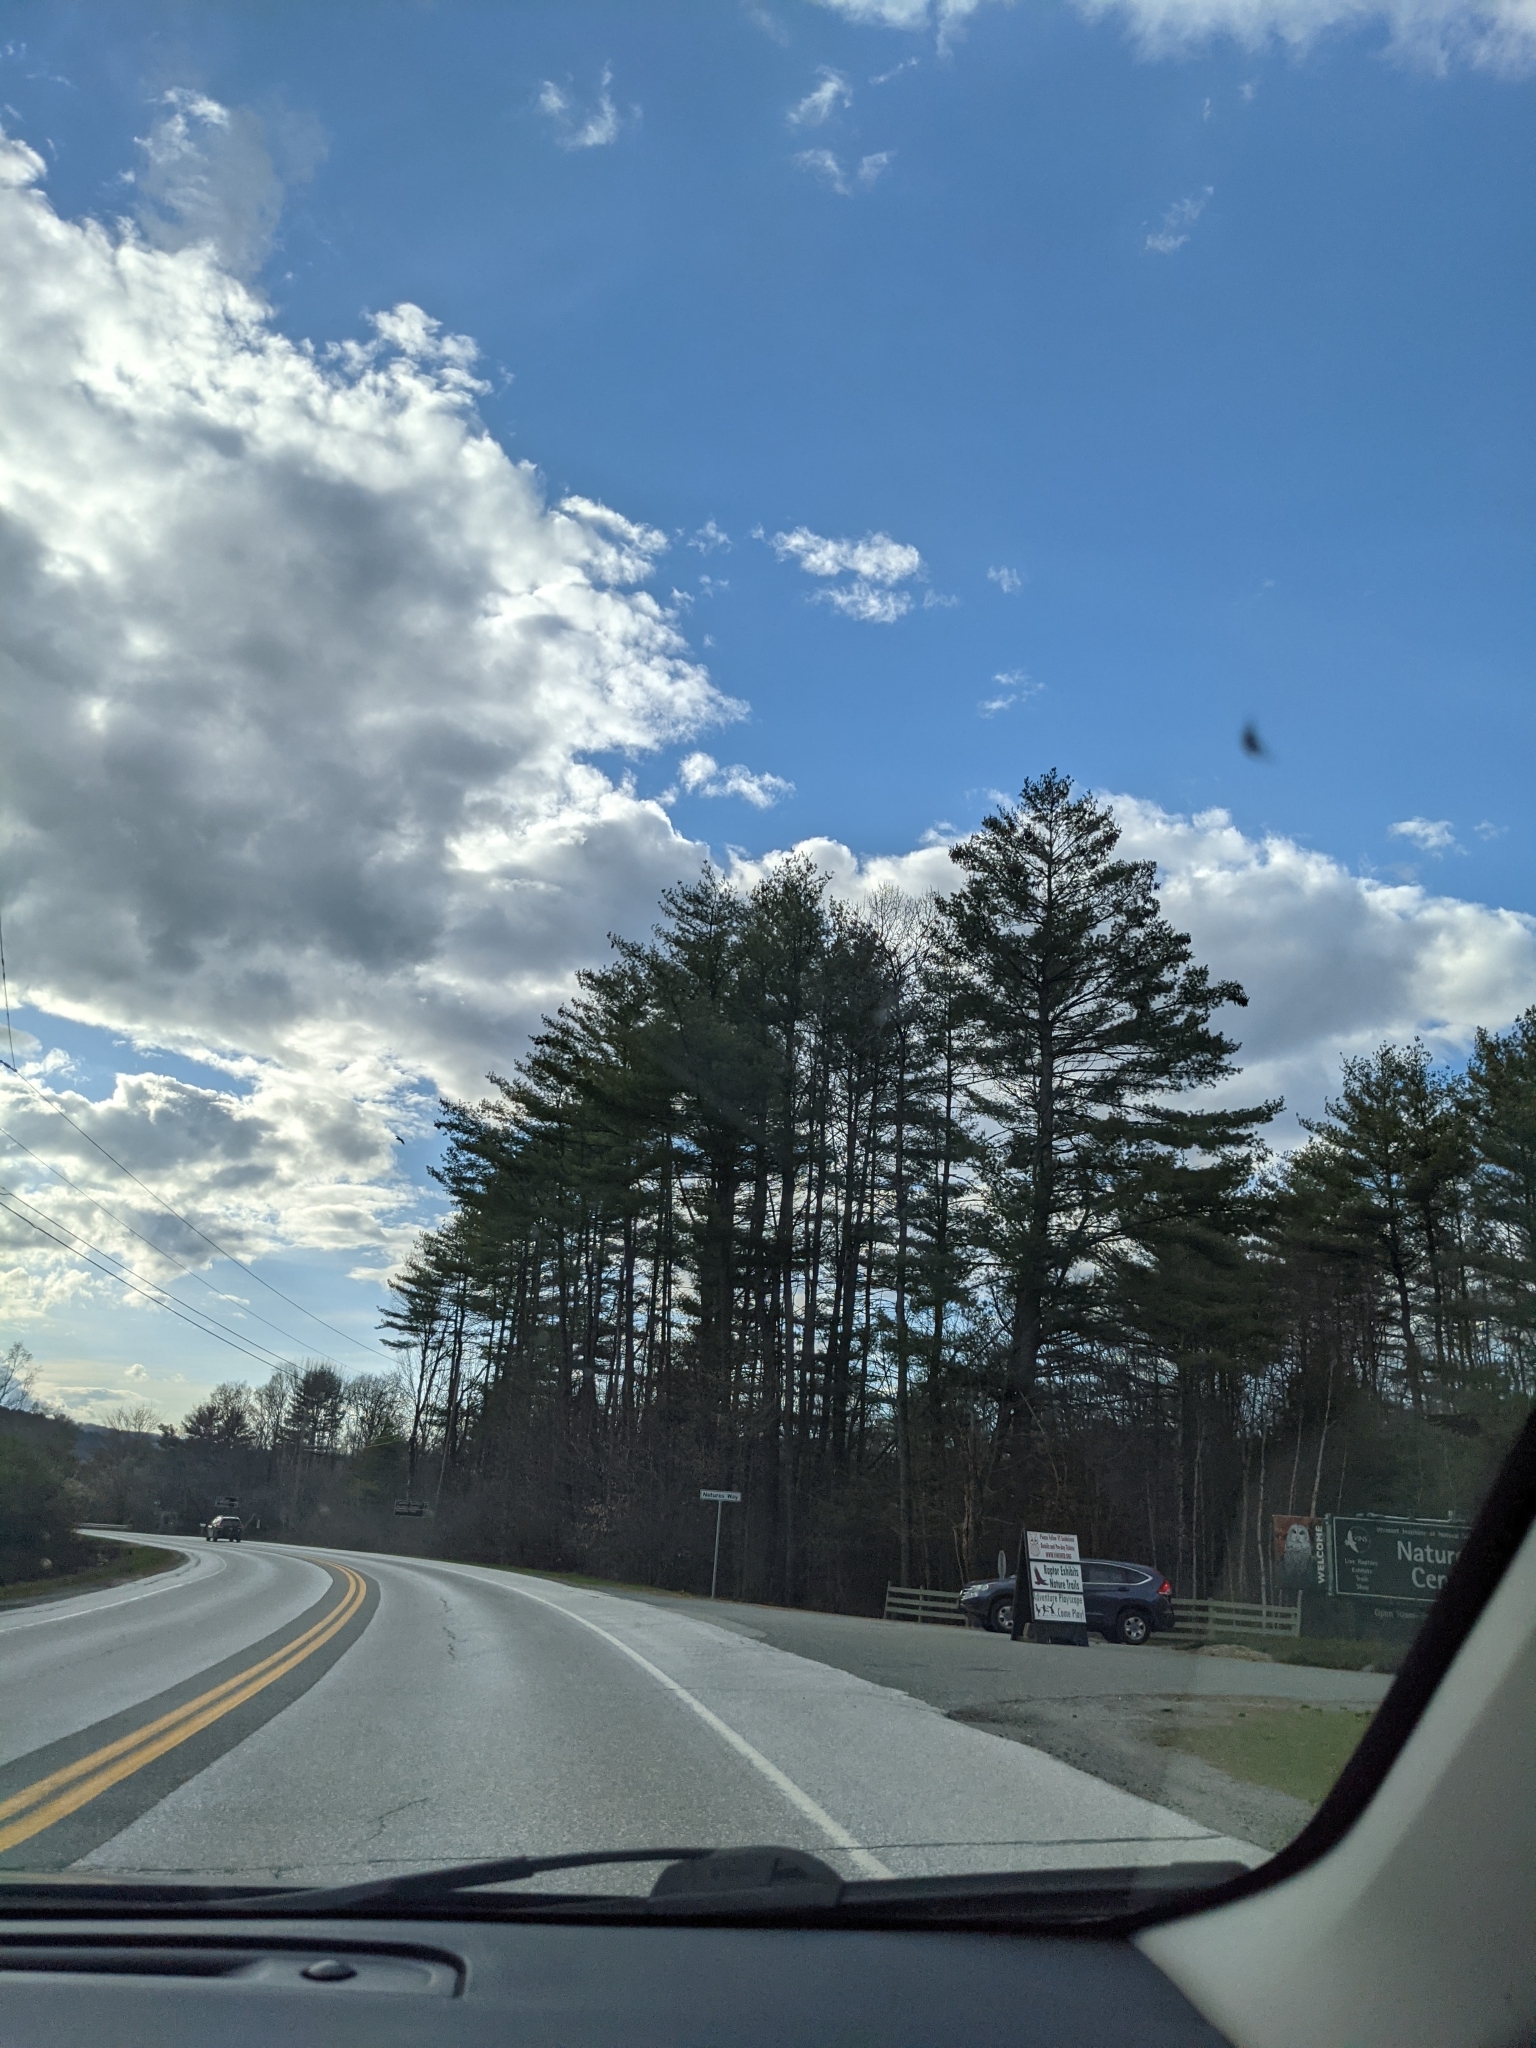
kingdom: Plantae
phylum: Tracheophyta
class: Pinopsida
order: Pinales
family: Pinaceae
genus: Pinus
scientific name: Pinus strobus
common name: Weymouth pine
